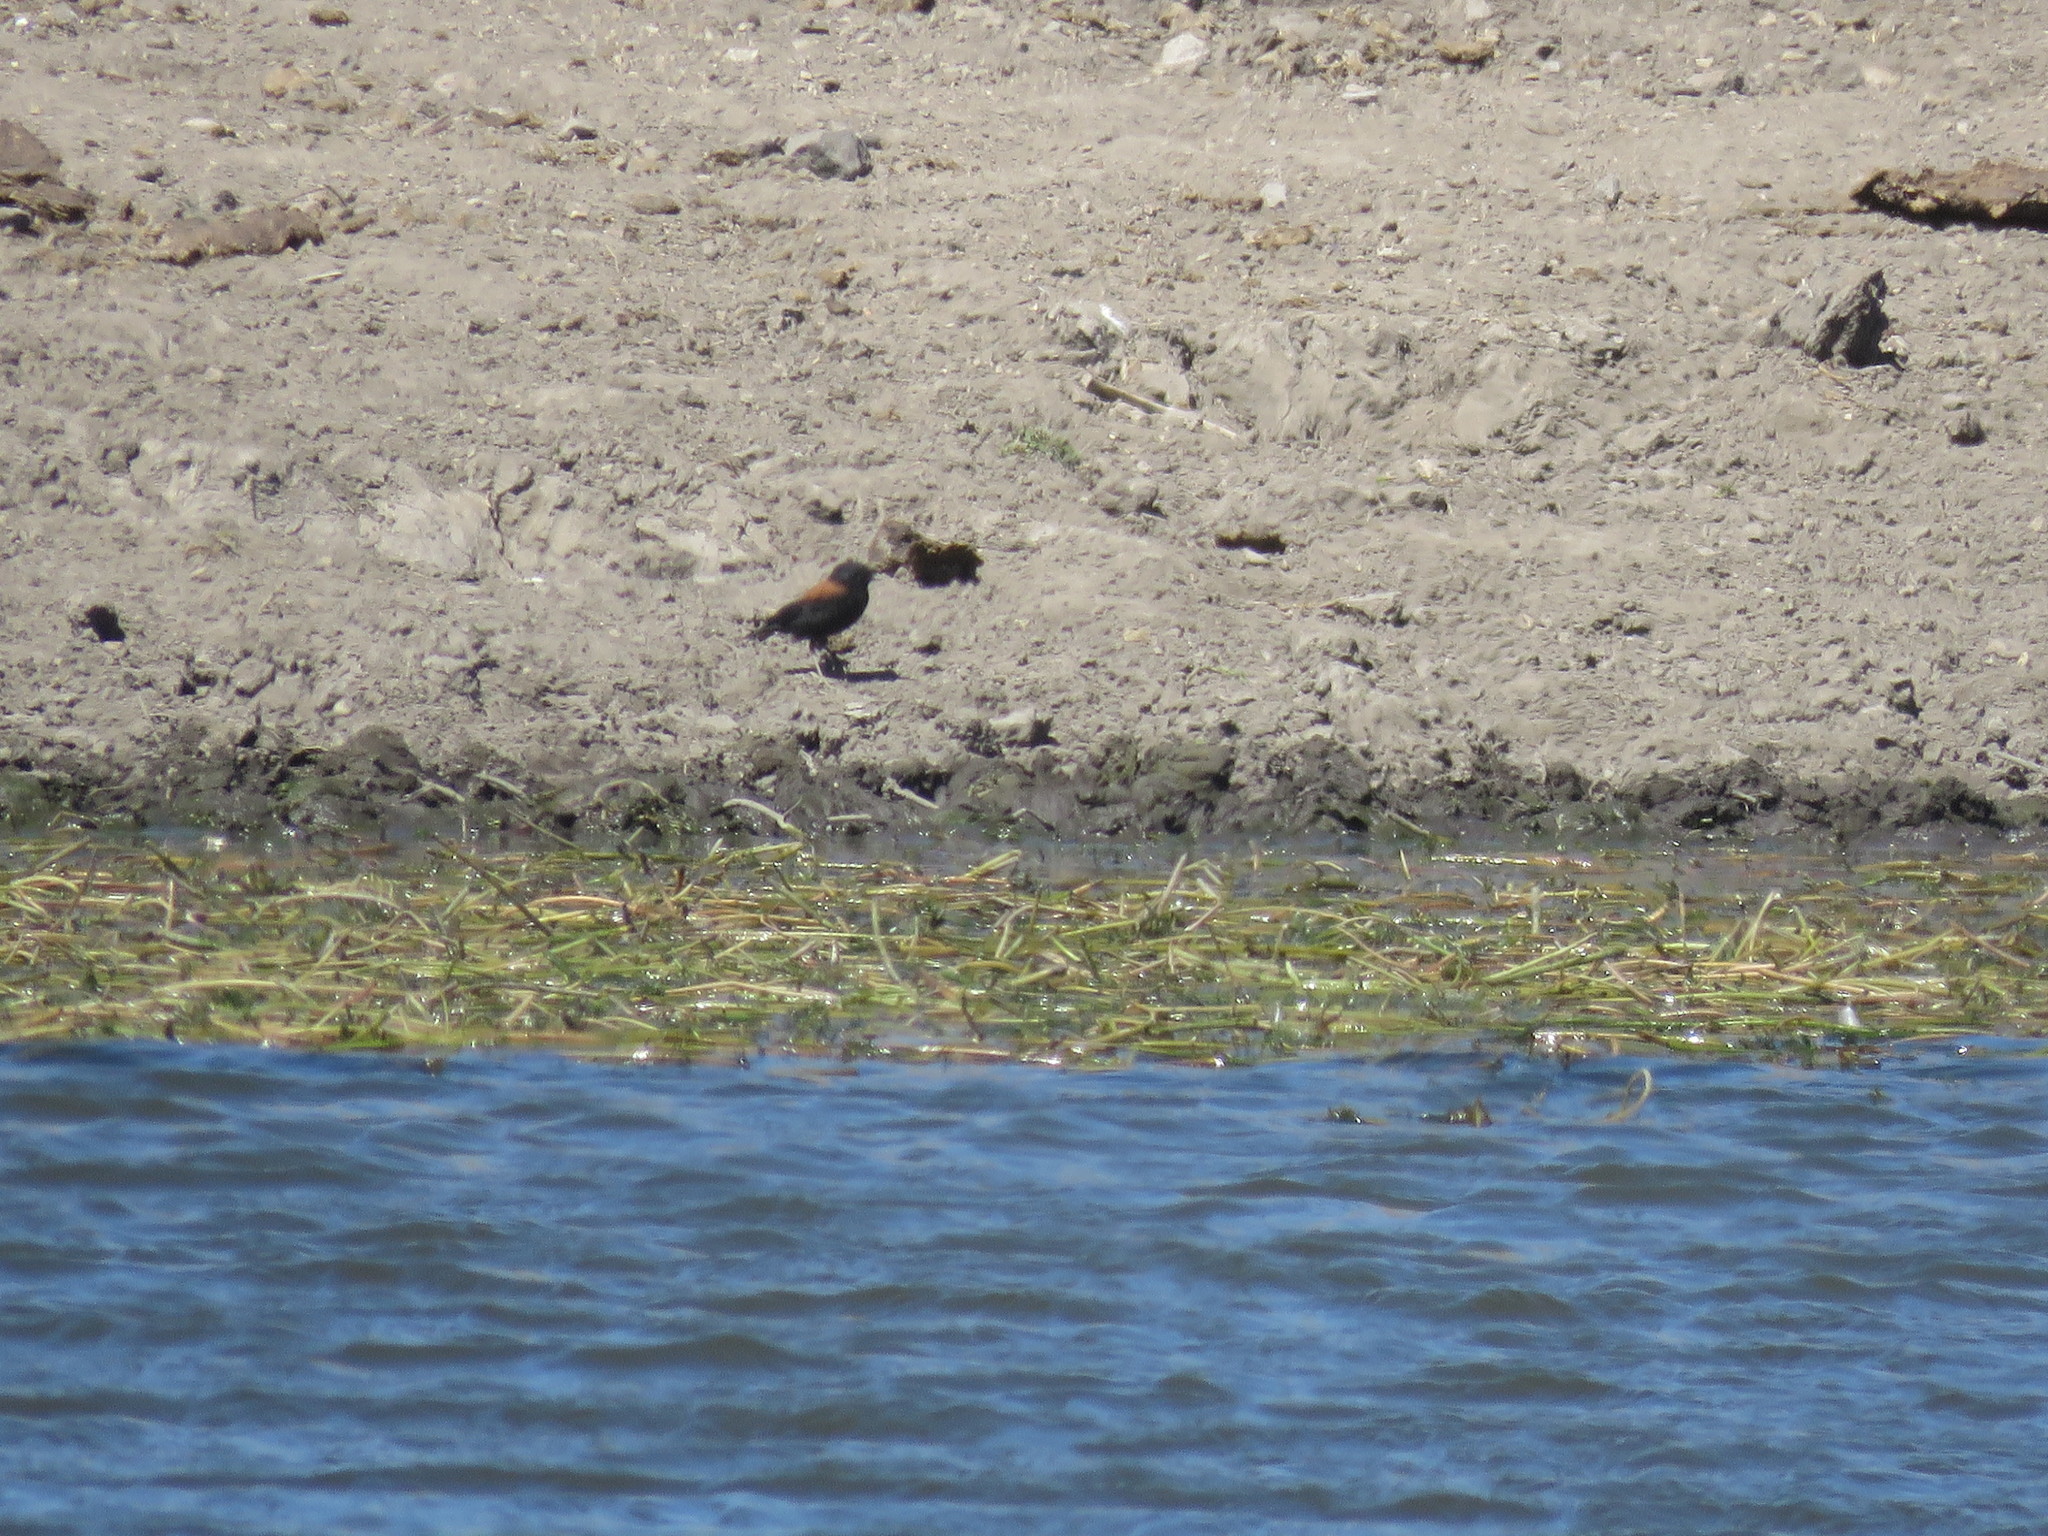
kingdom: Animalia
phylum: Chordata
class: Aves
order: Passeriformes
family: Tyrannidae
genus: Lessonia
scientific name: Lessonia rufa
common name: Austral negrito
